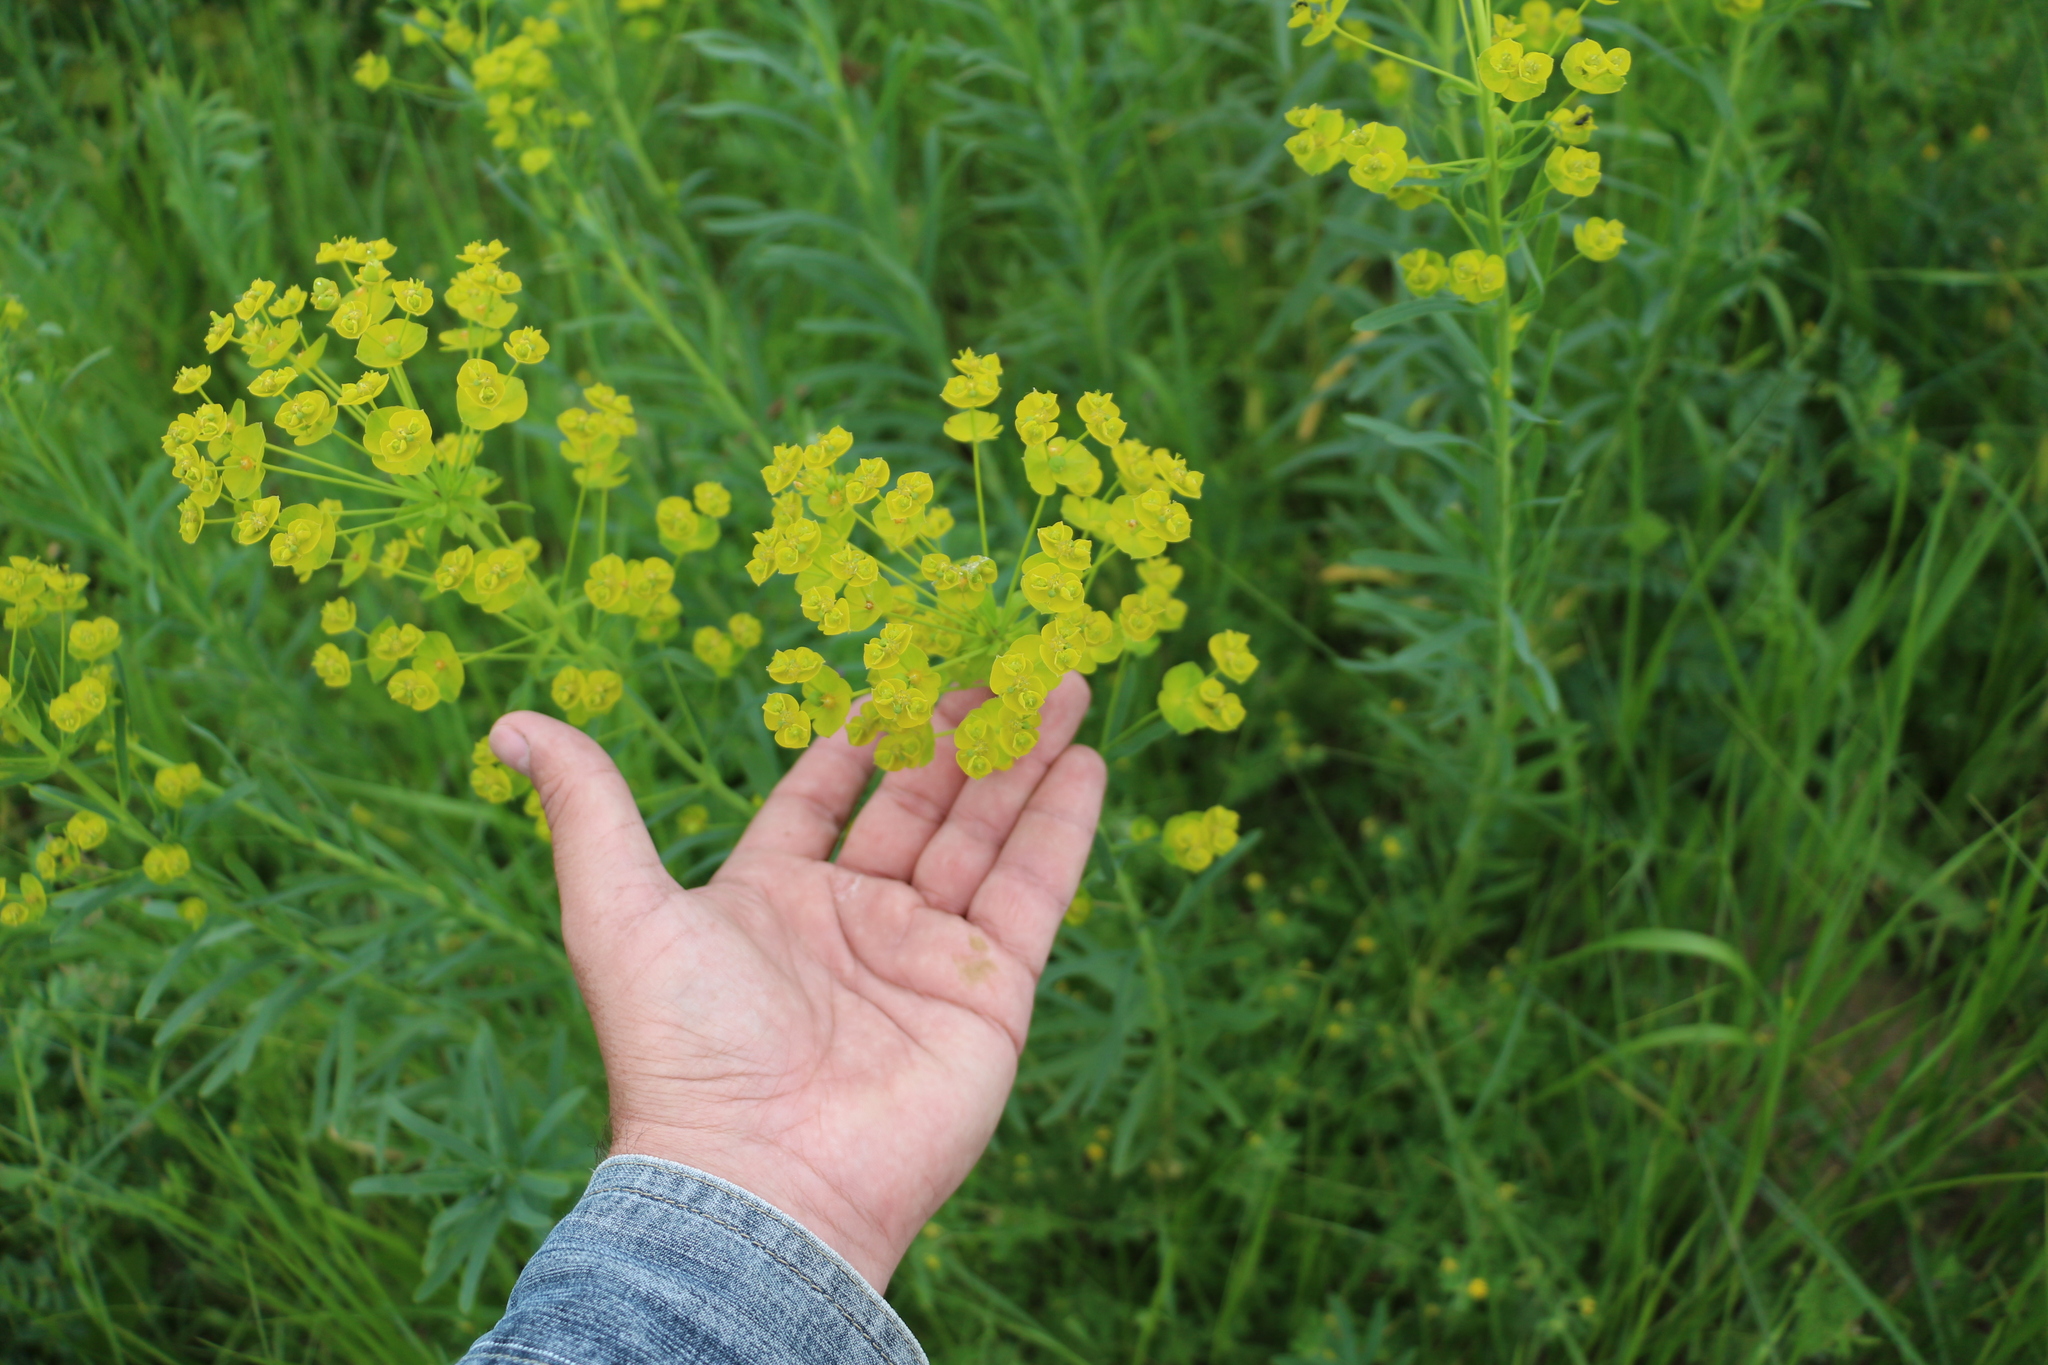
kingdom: Plantae
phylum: Tracheophyta
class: Magnoliopsida
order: Malpighiales
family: Euphorbiaceae
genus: Euphorbia
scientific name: Euphorbia virgata
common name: Leafy spurge
